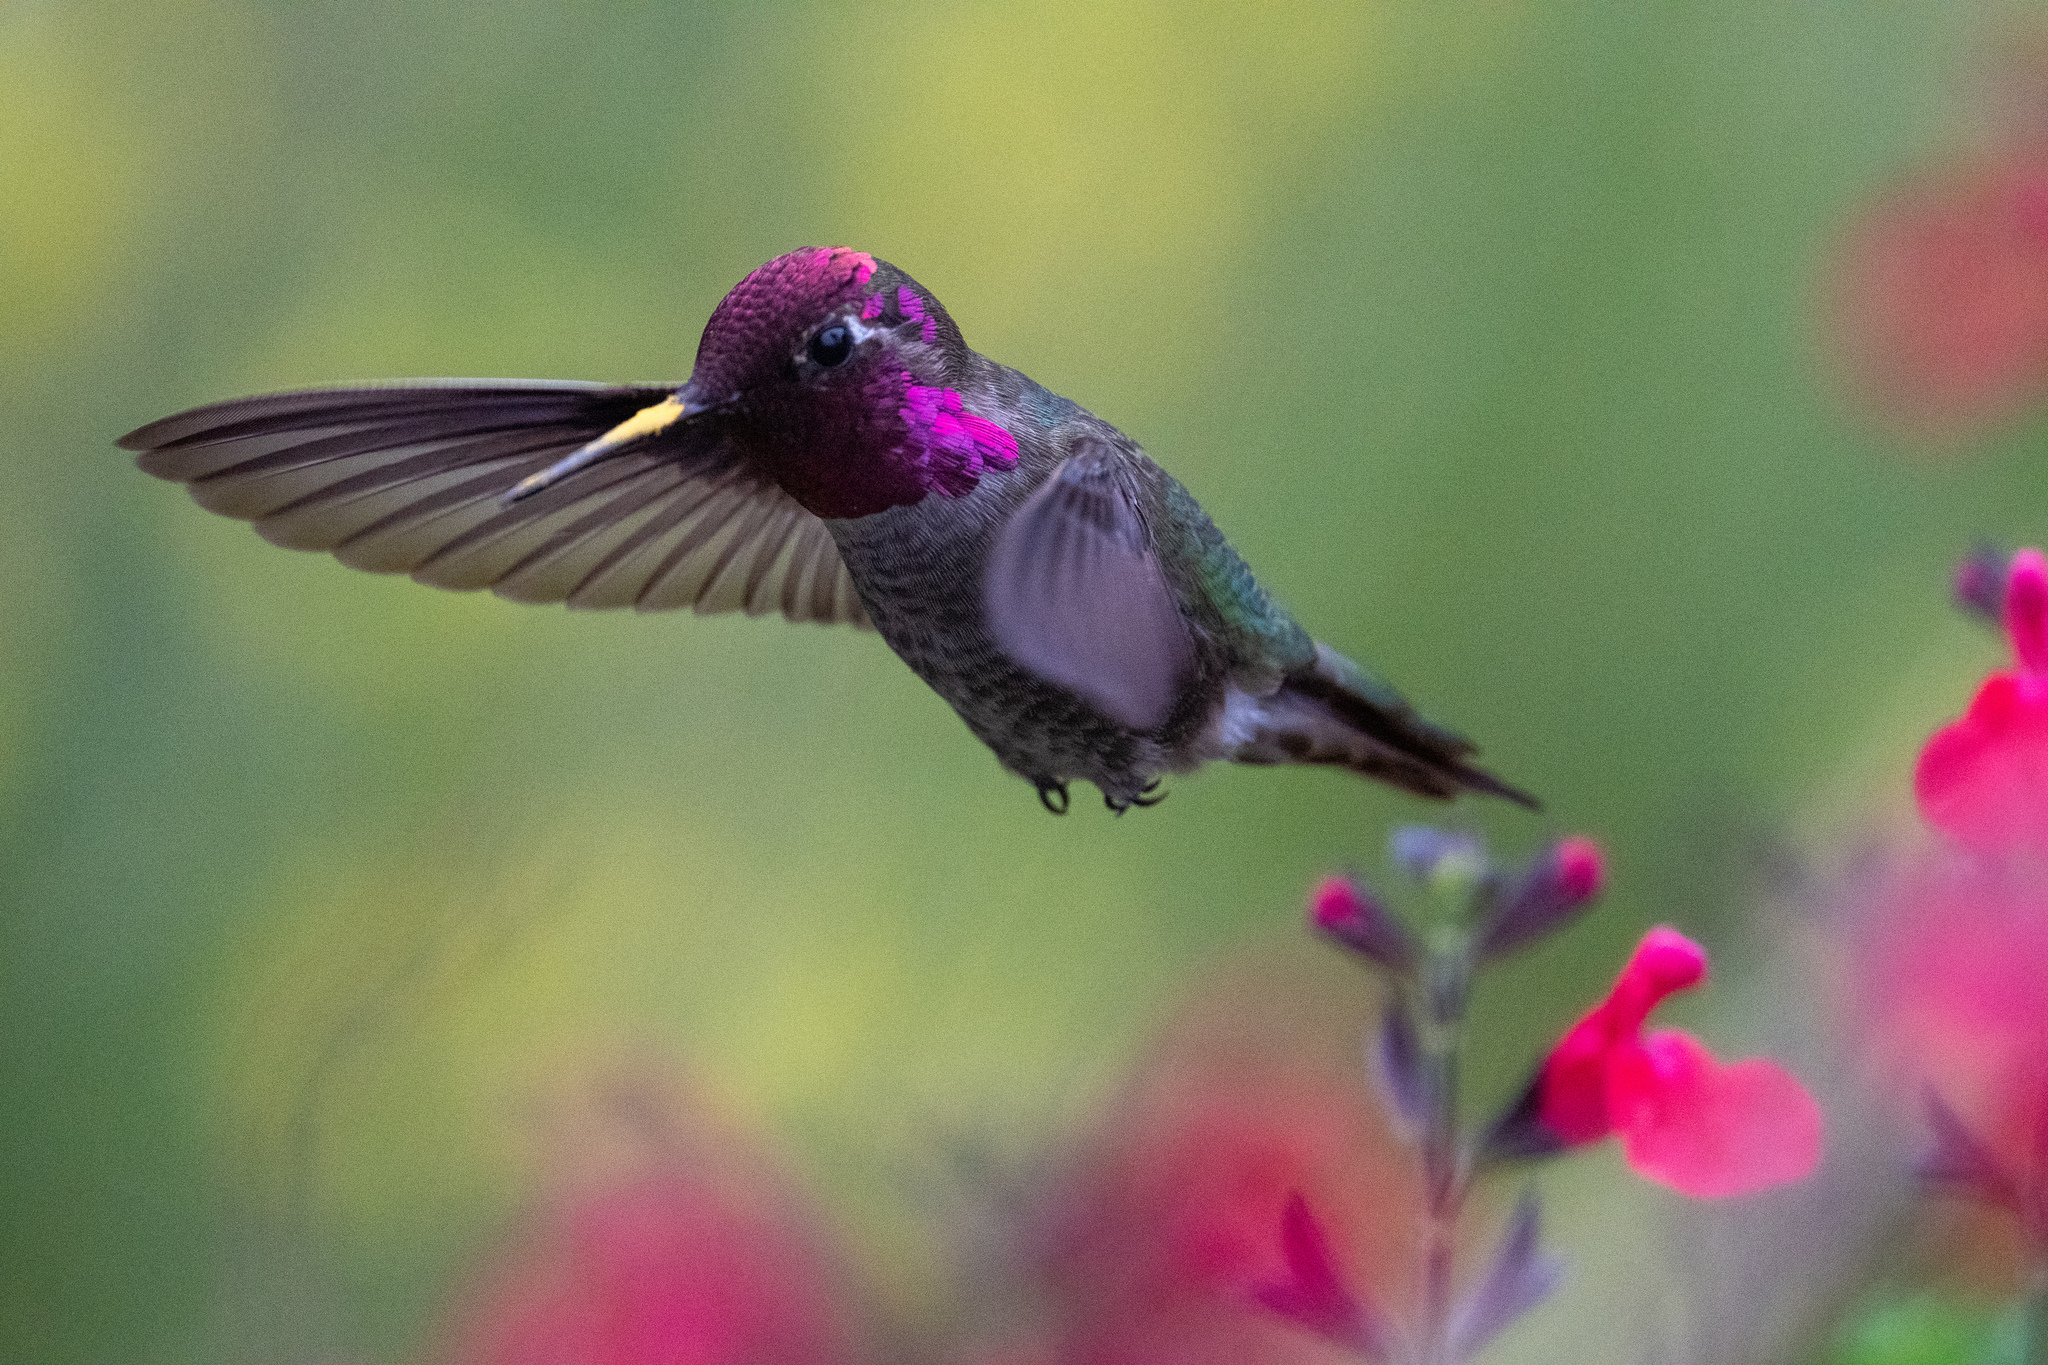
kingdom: Animalia
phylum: Chordata
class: Aves
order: Apodiformes
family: Trochilidae
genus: Calypte
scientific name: Calypte anna
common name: Anna's hummingbird
